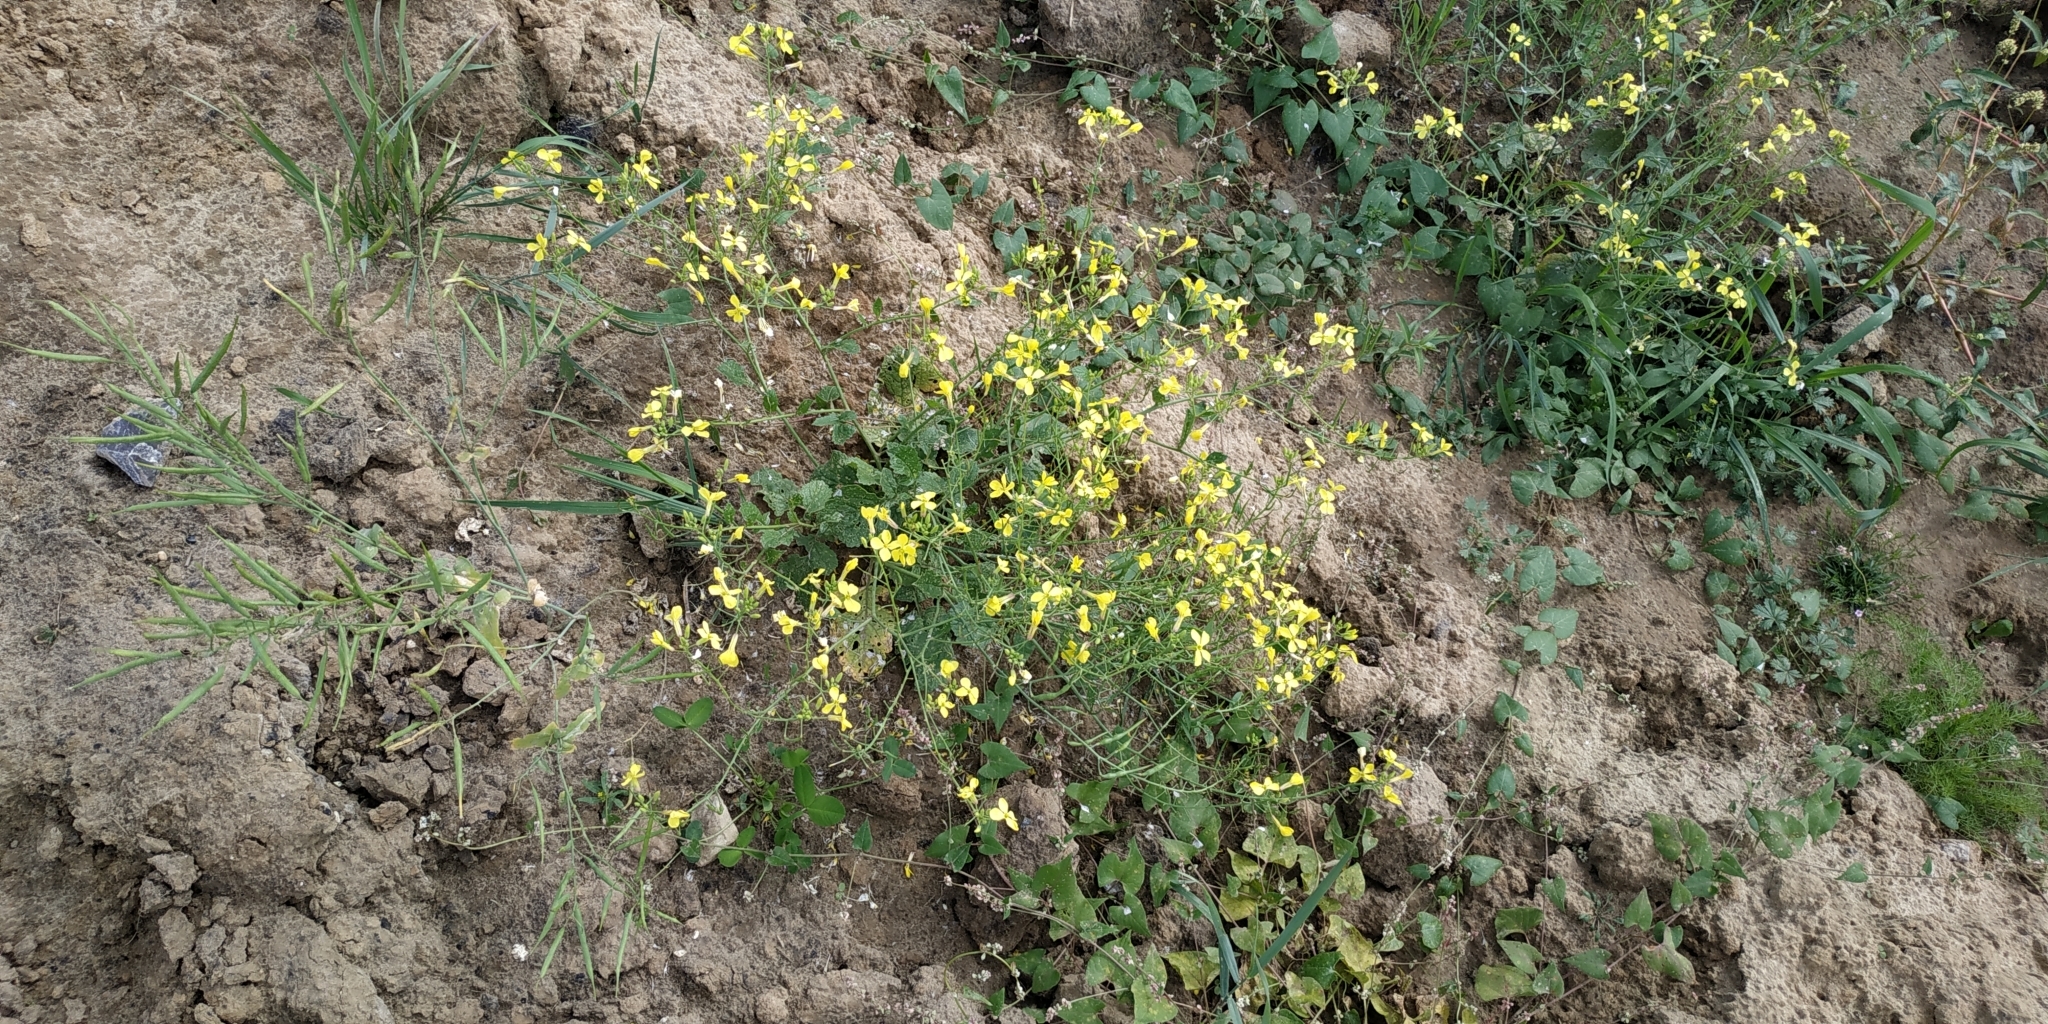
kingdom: Plantae
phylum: Tracheophyta
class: Magnoliopsida
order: Brassicales
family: Brassicaceae
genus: Raphanus
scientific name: Raphanus raphanistrum
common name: Wild radish
